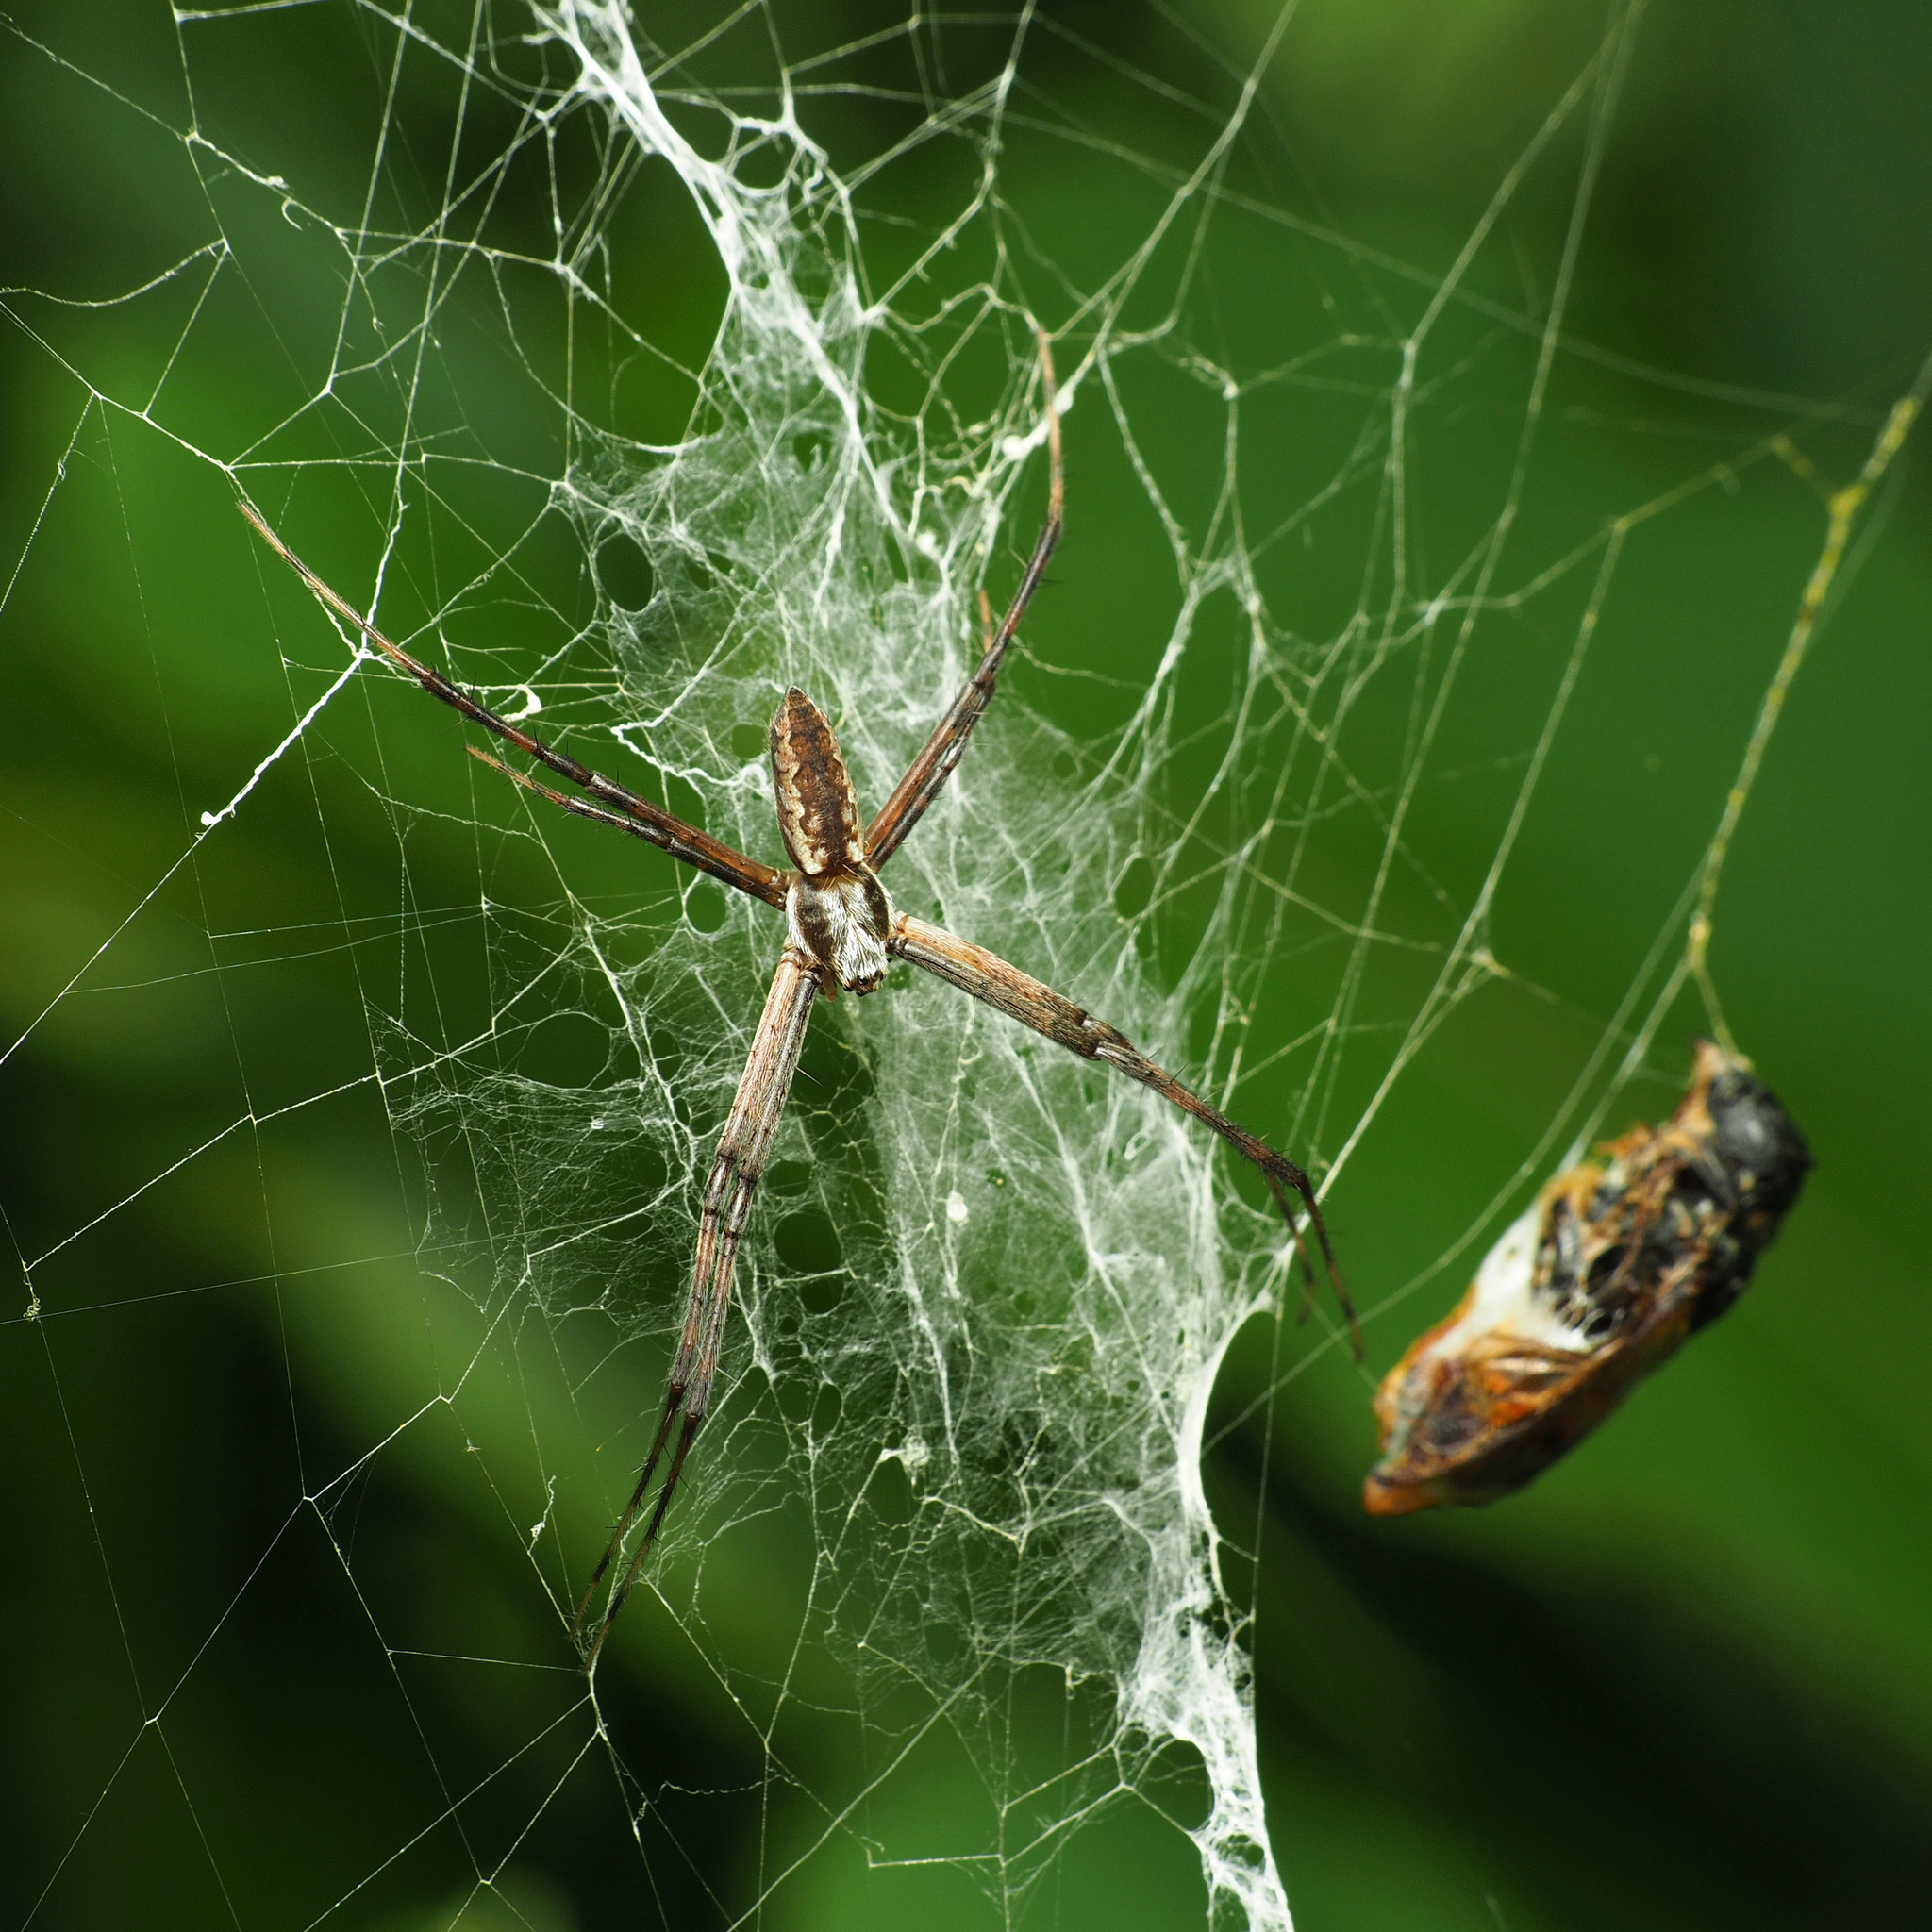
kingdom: Animalia
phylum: Arthropoda
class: Arachnida
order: Araneae
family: Araneidae
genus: Argiope
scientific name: Argiope aurantia
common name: Orb weavers
